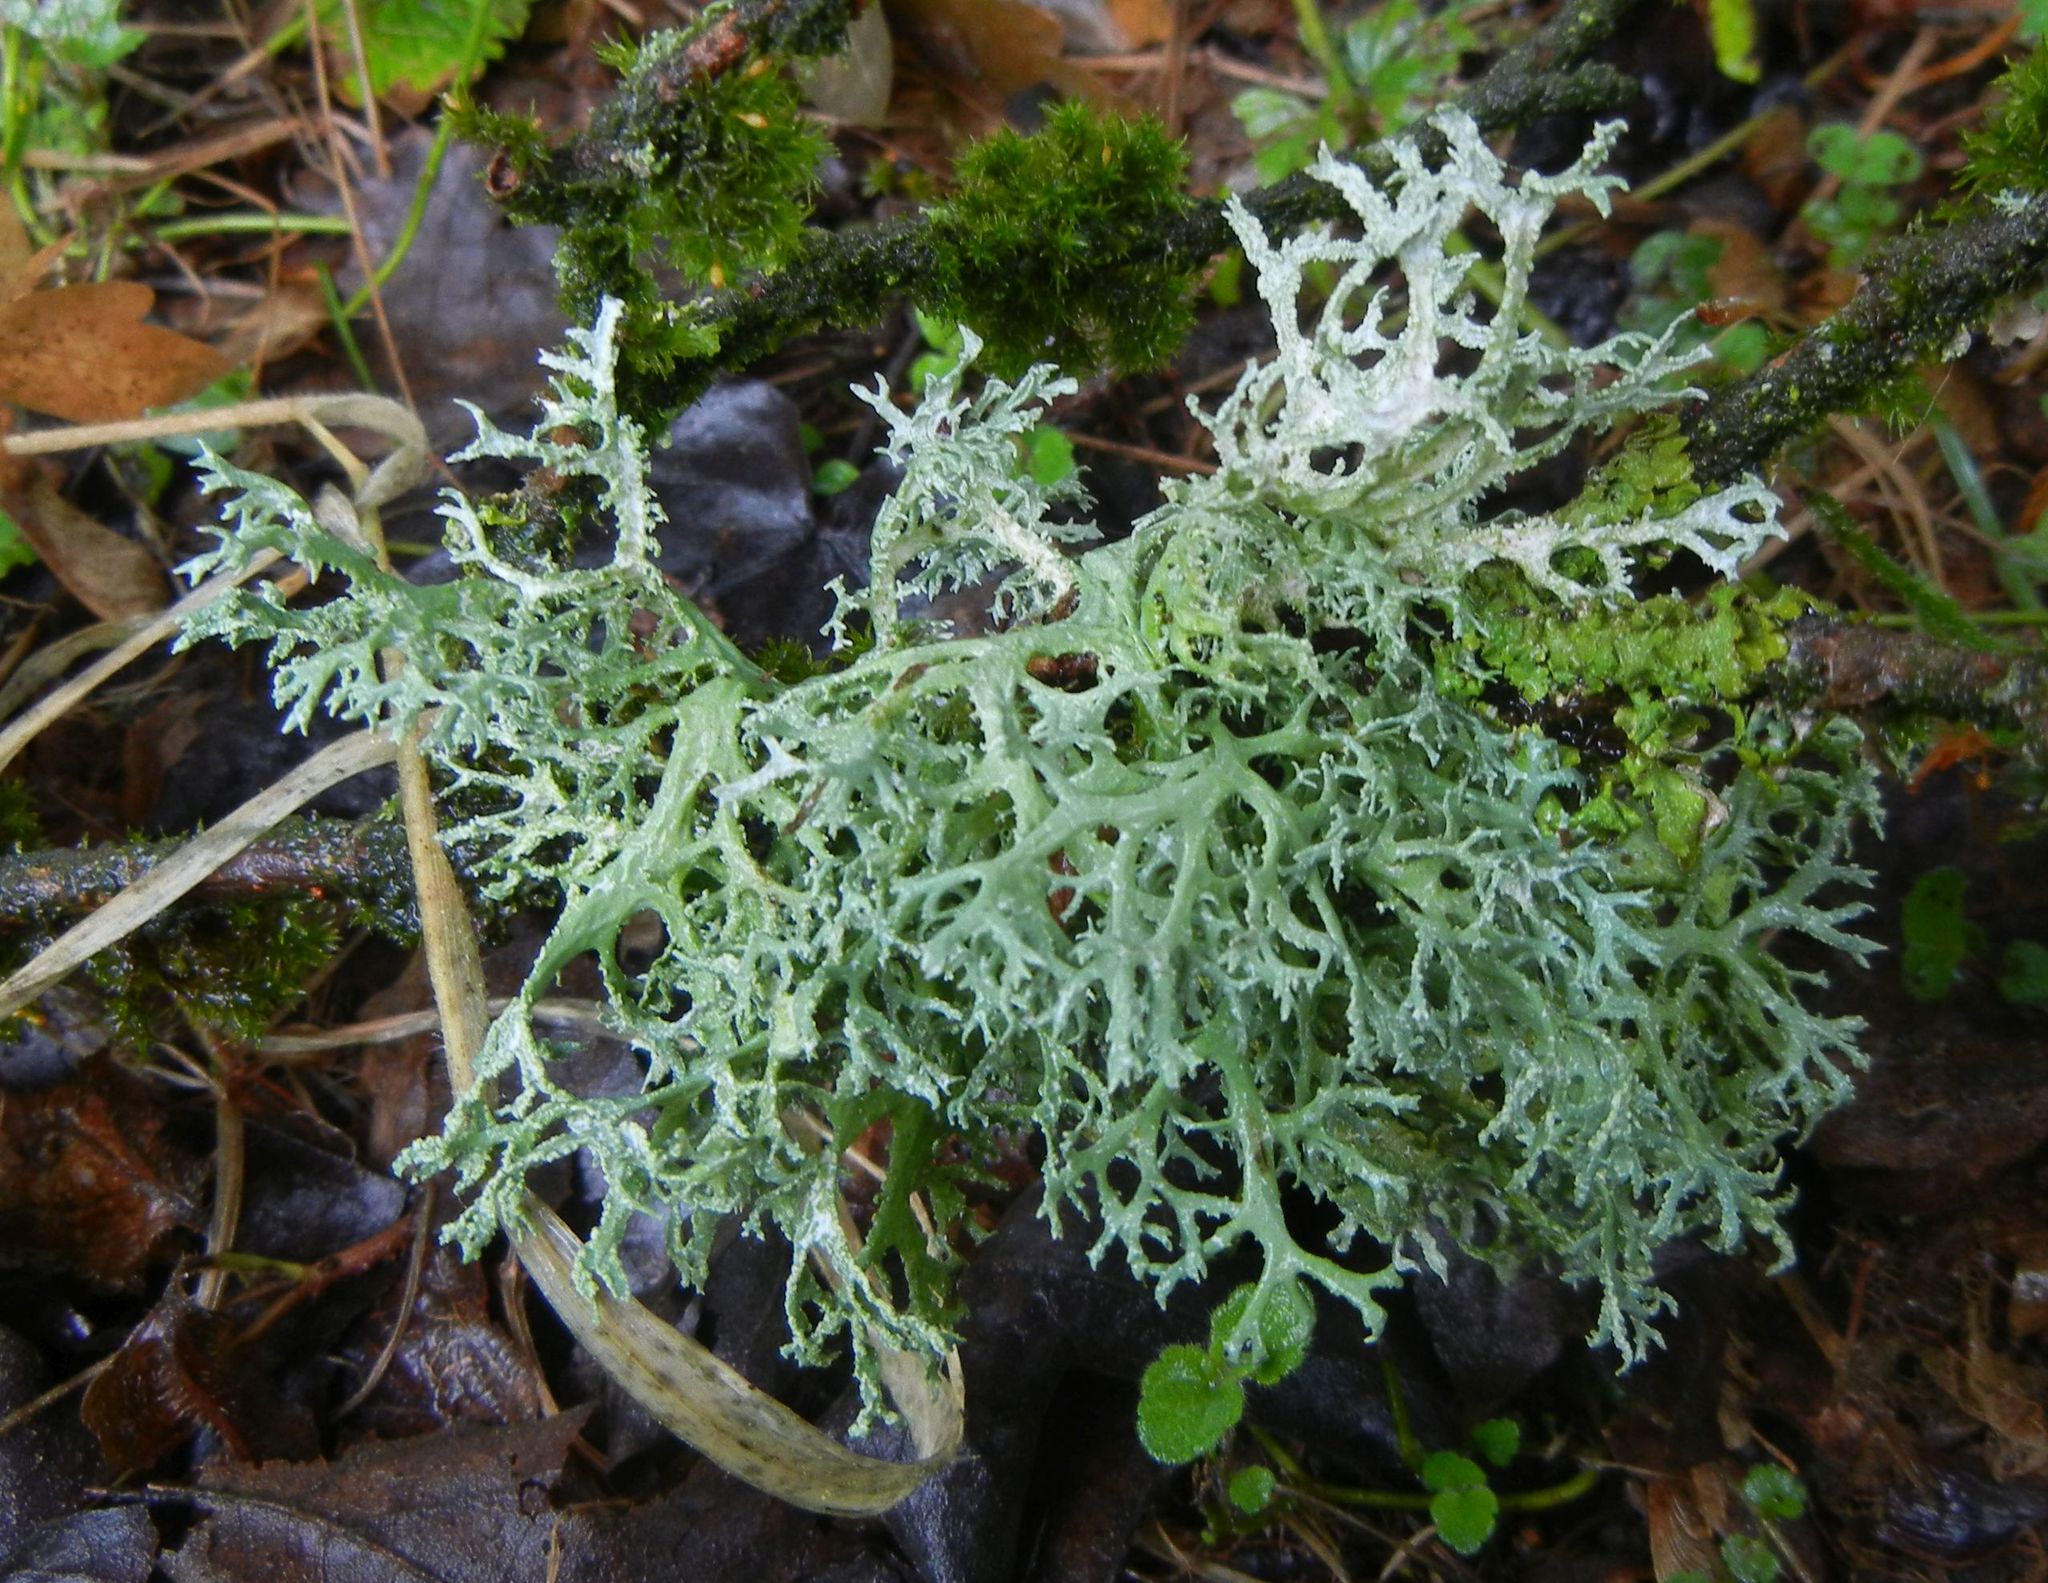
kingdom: Fungi
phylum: Ascomycota
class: Lecanoromycetes
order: Lecanorales
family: Parmeliaceae
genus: Evernia
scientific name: Evernia prunastri
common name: Oak moss
